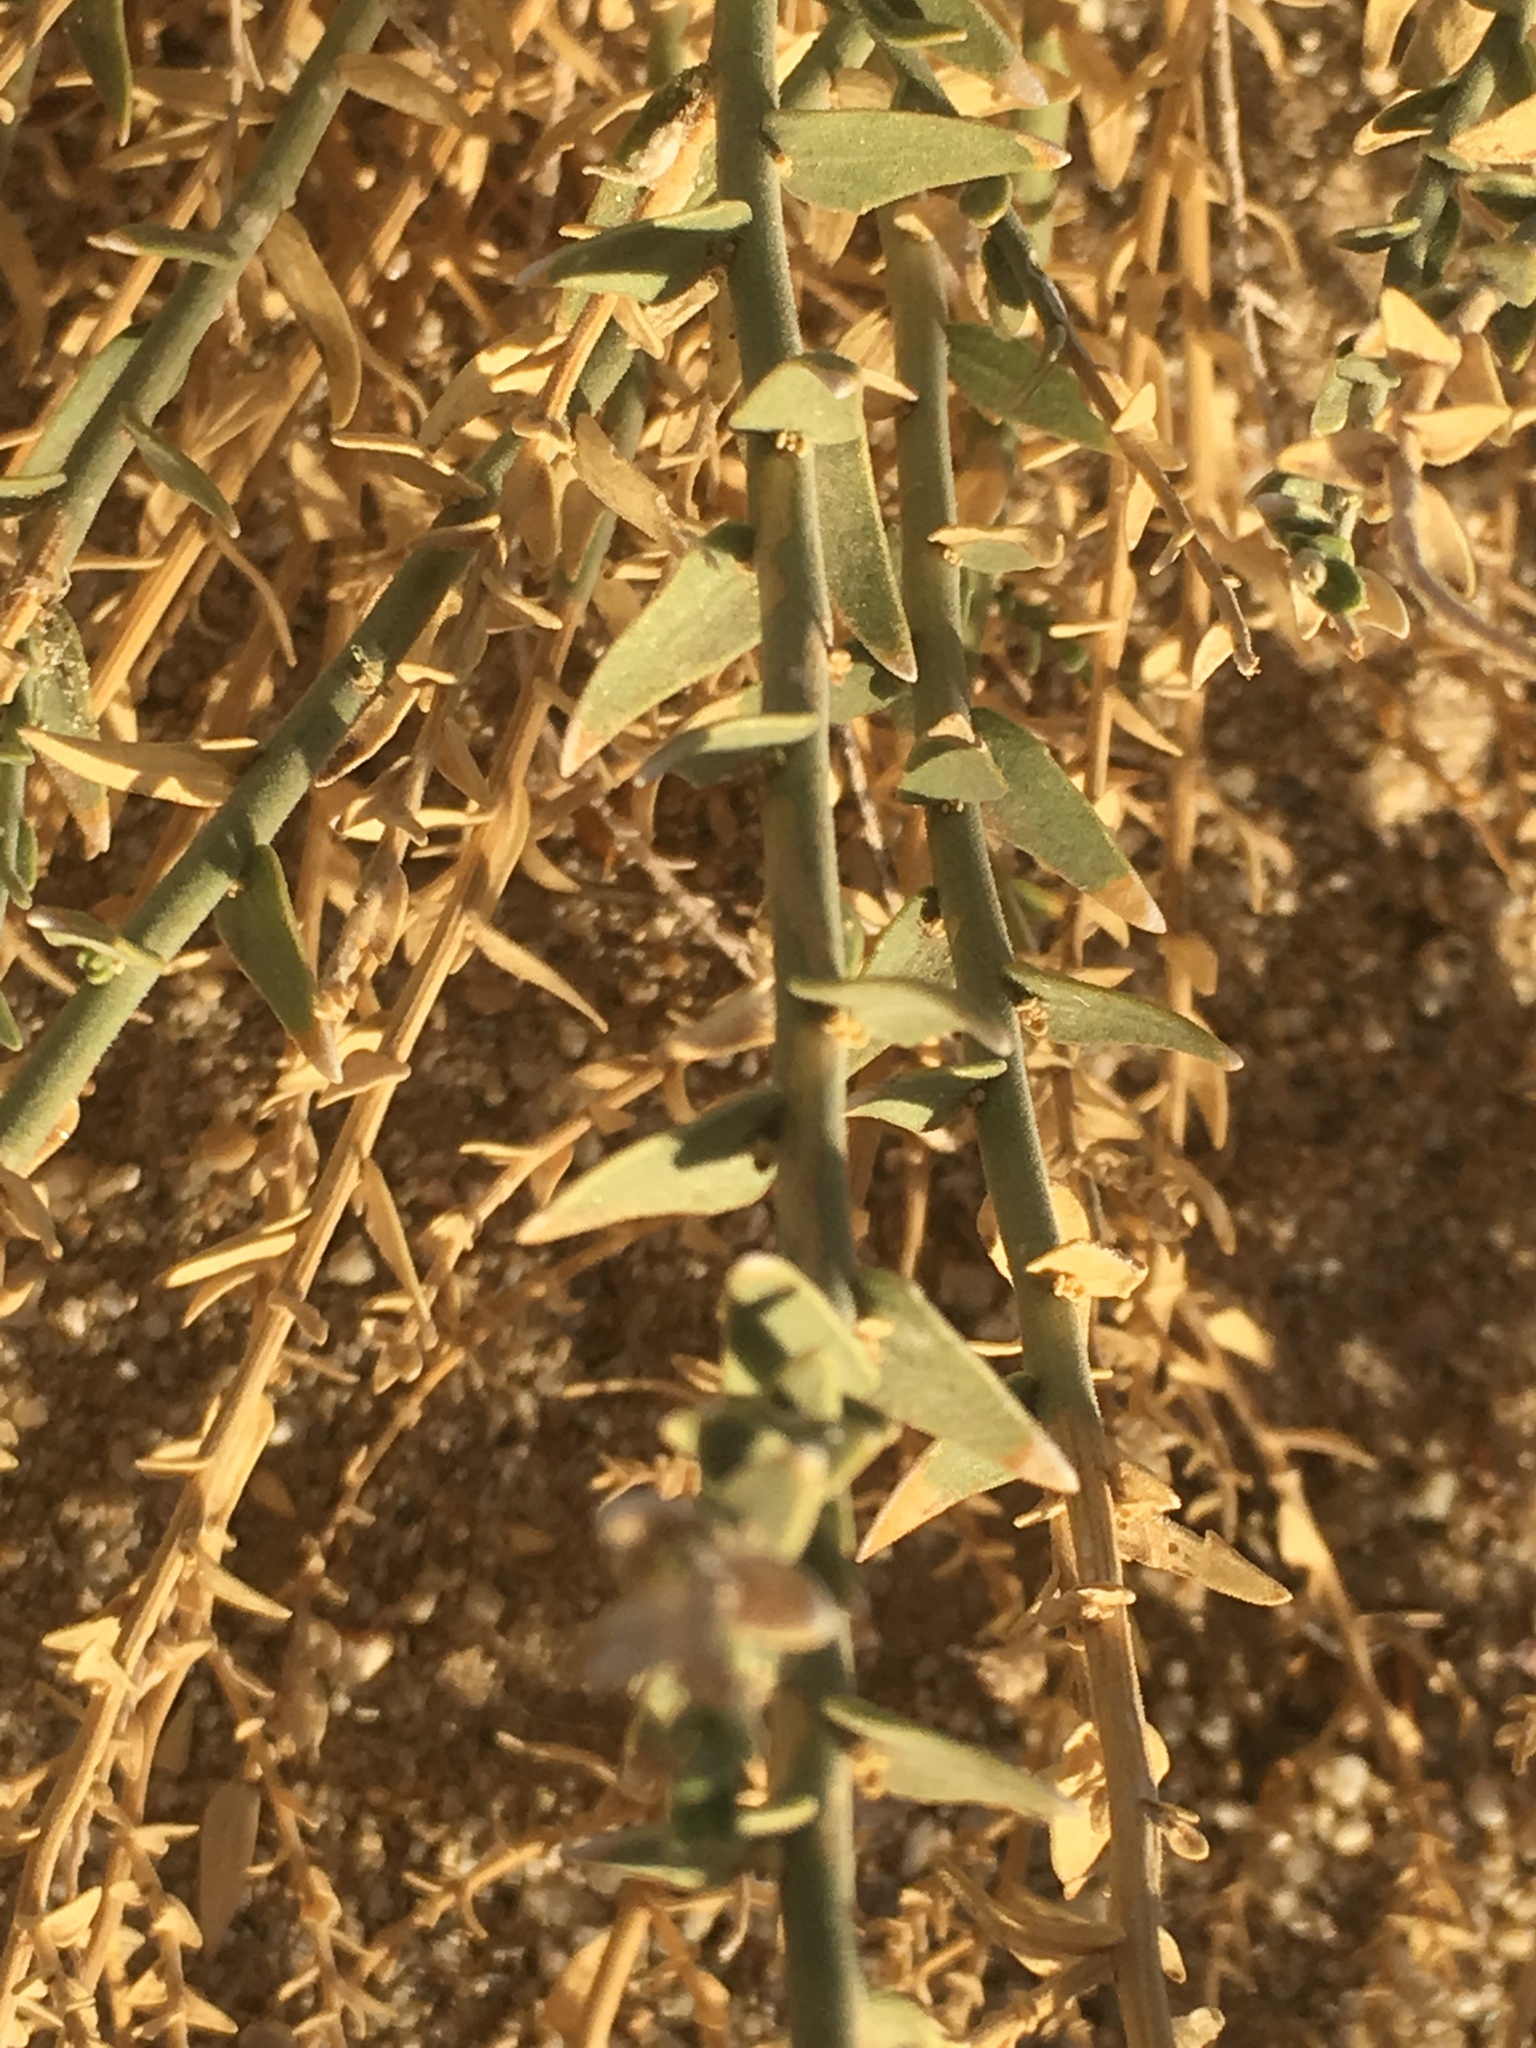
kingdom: Plantae
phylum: Tracheophyta
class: Magnoliopsida
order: Cornales
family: Loasaceae
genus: Petalonyx
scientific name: Petalonyx thurberi
